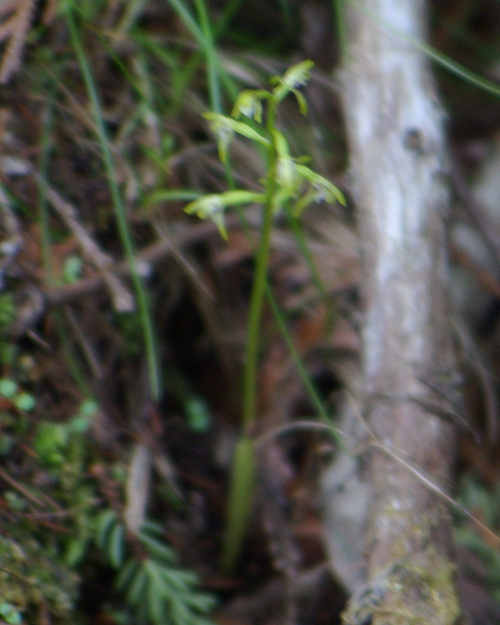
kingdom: Plantae
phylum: Tracheophyta
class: Liliopsida
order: Asparagales
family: Orchidaceae
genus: Corallorhiza
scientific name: Corallorhiza trifida
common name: Yellow coralroot
